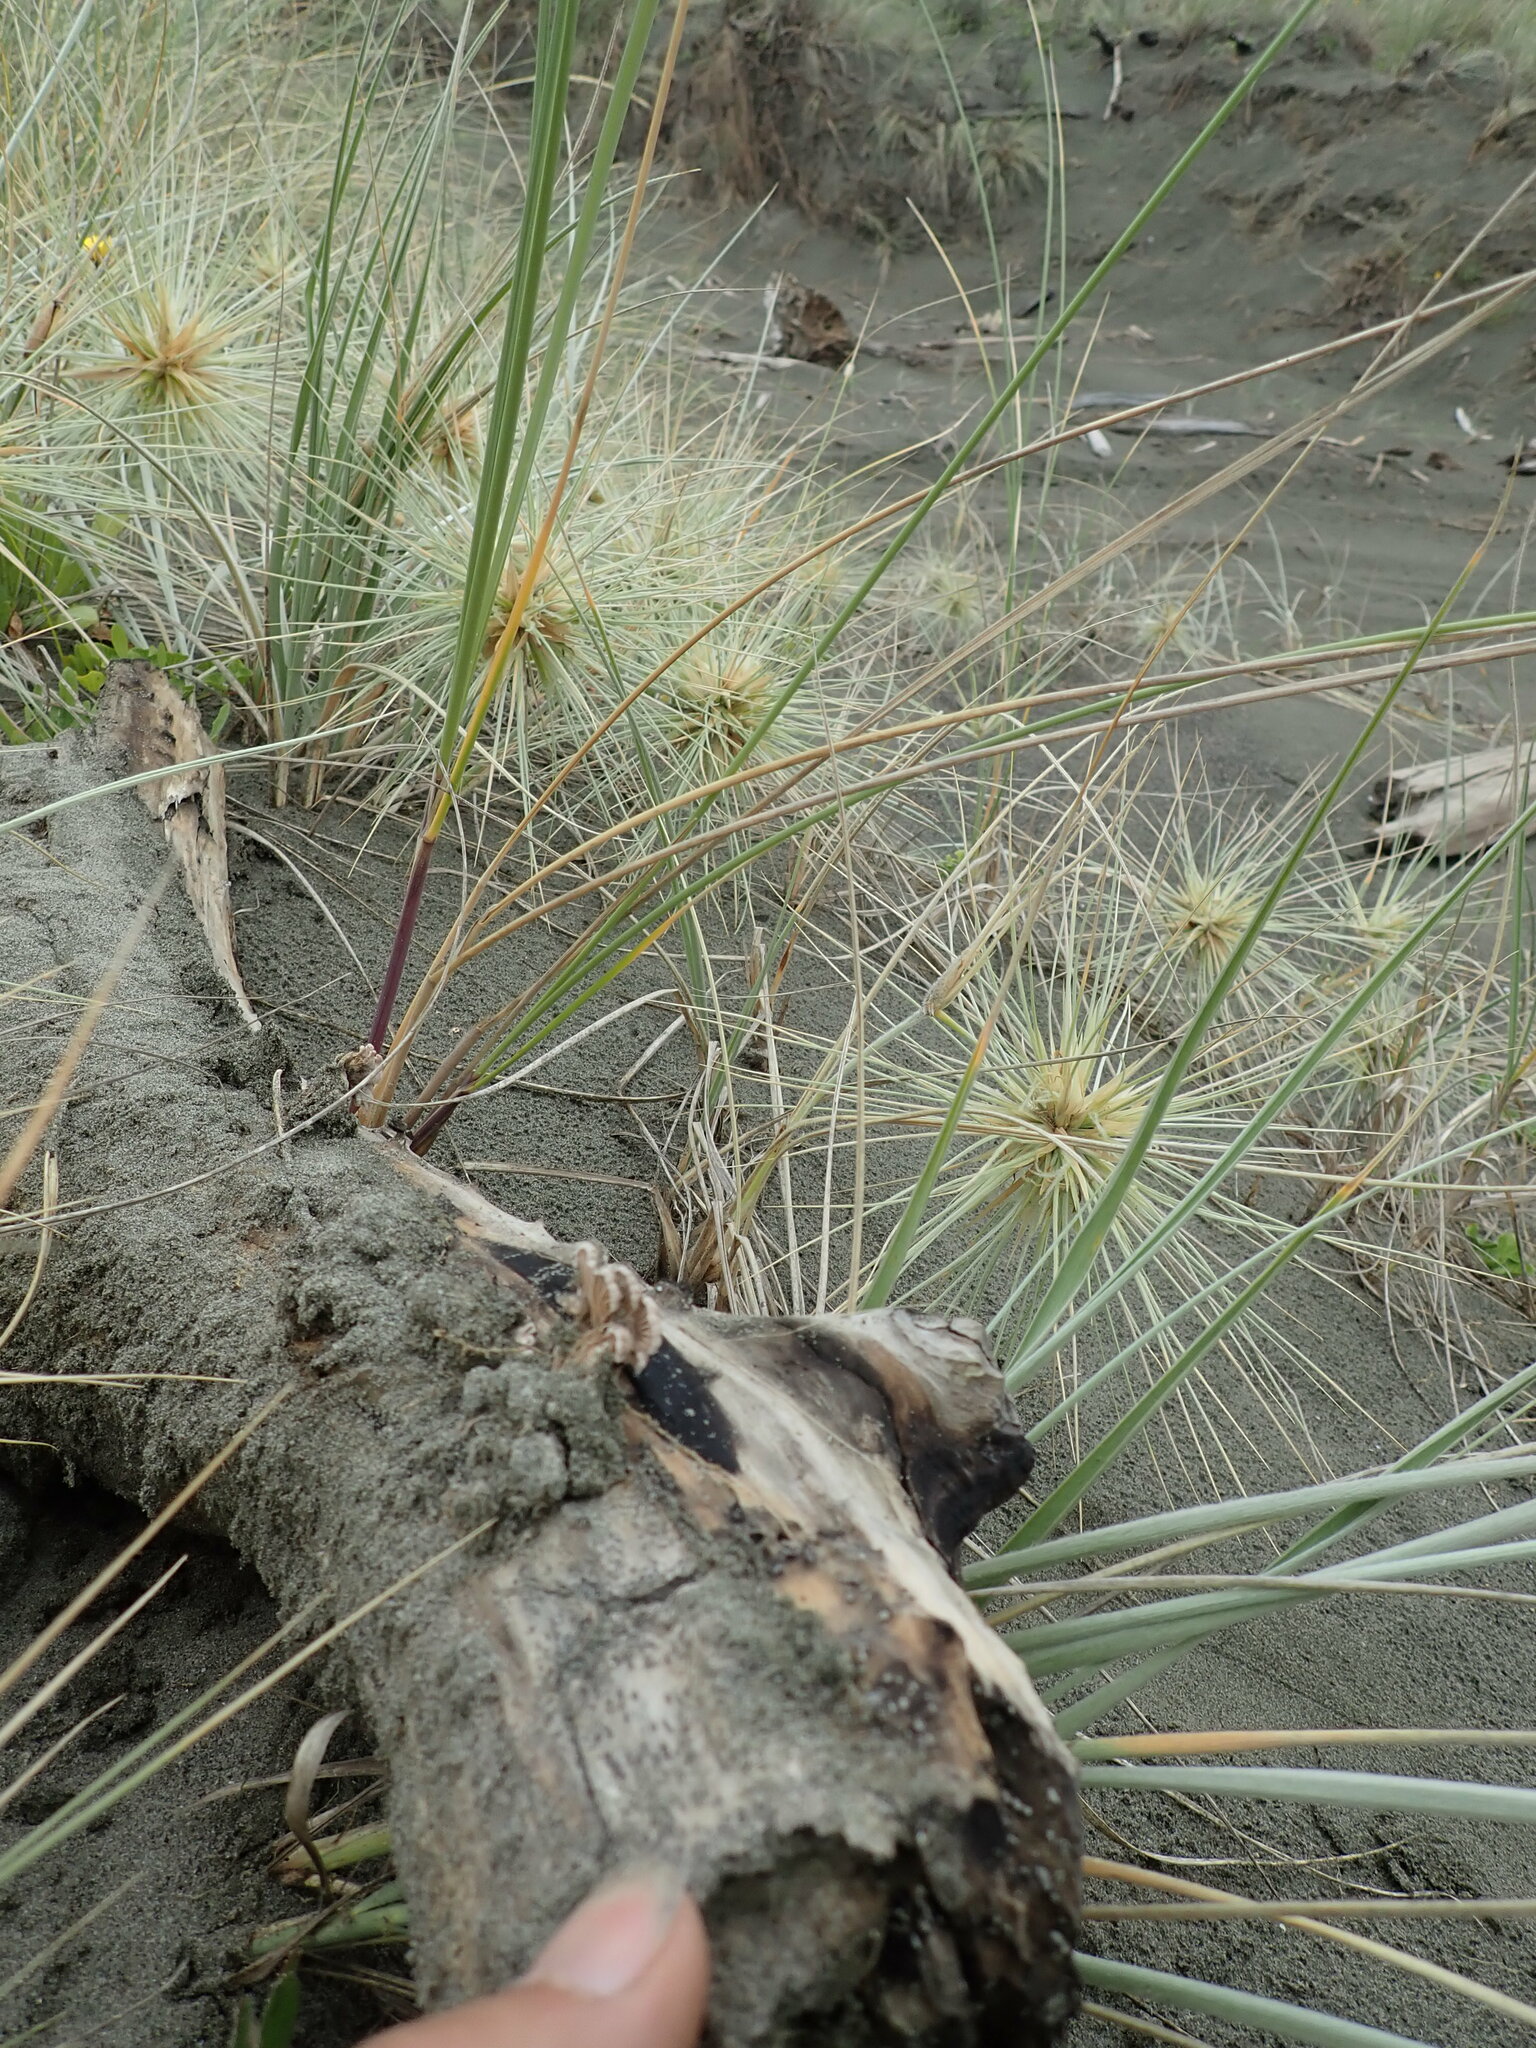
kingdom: Fungi
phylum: Basidiomycota
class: Agaricomycetes
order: Agaricales
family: Schizophyllaceae
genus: Schizophyllum
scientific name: Schizophyllum commune
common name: Common porecrust
